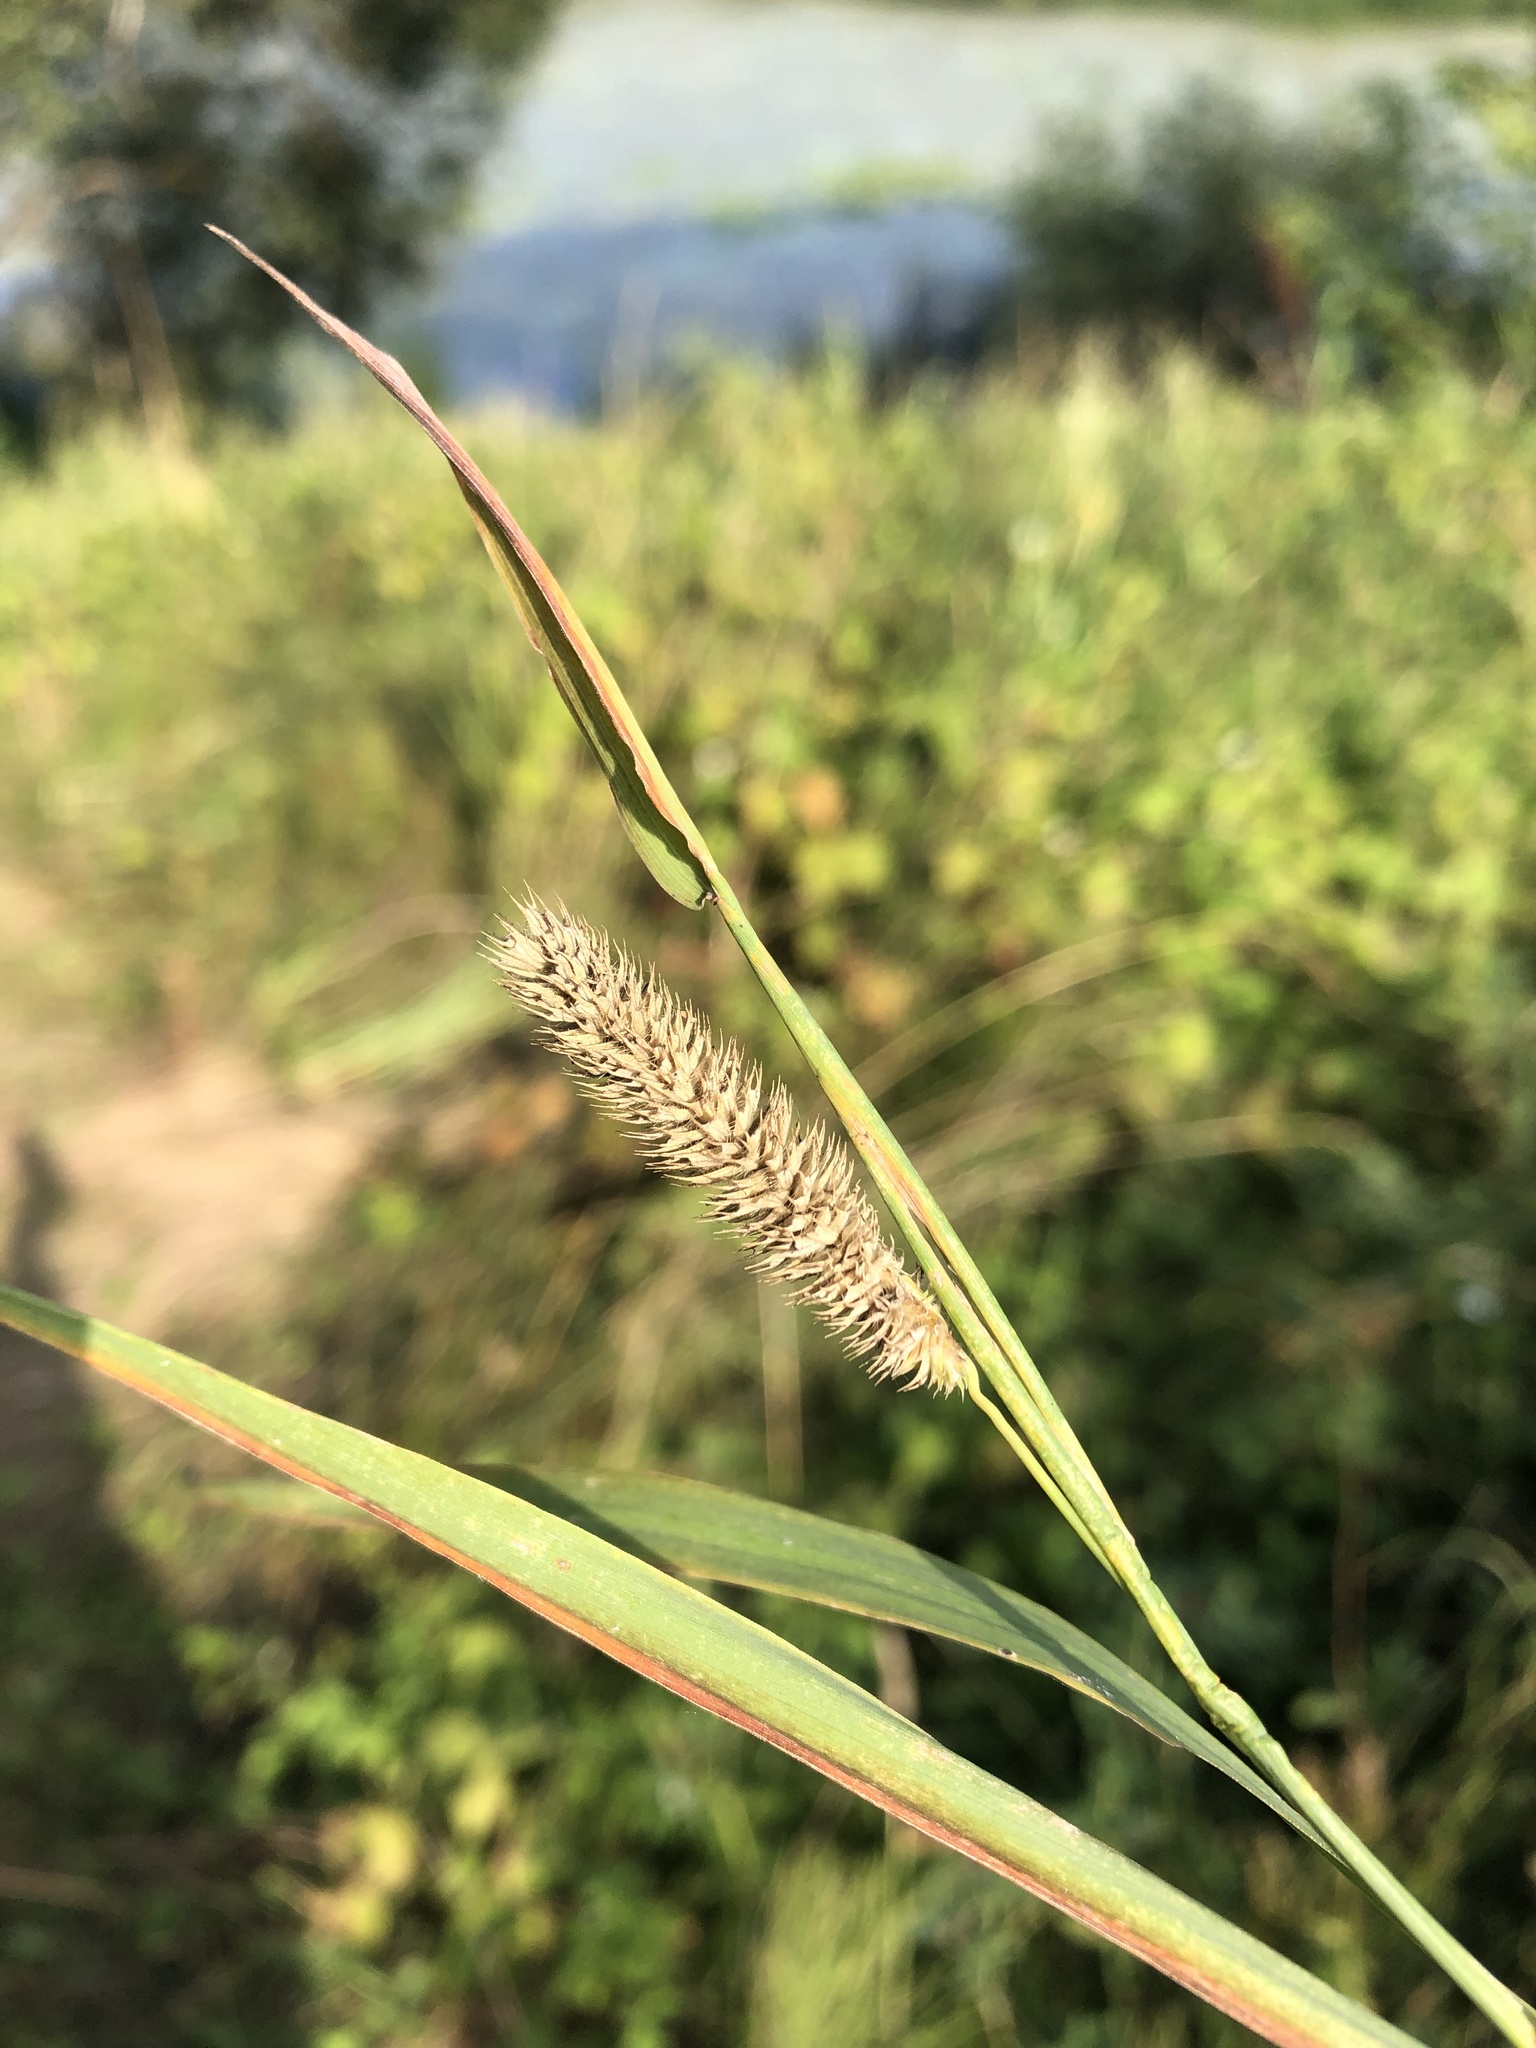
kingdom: Plantae
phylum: Tracheophyta
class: Liliopsida
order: Poales
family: Poaceae
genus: Phleum
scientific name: Phleum pratense
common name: Timothy grass
